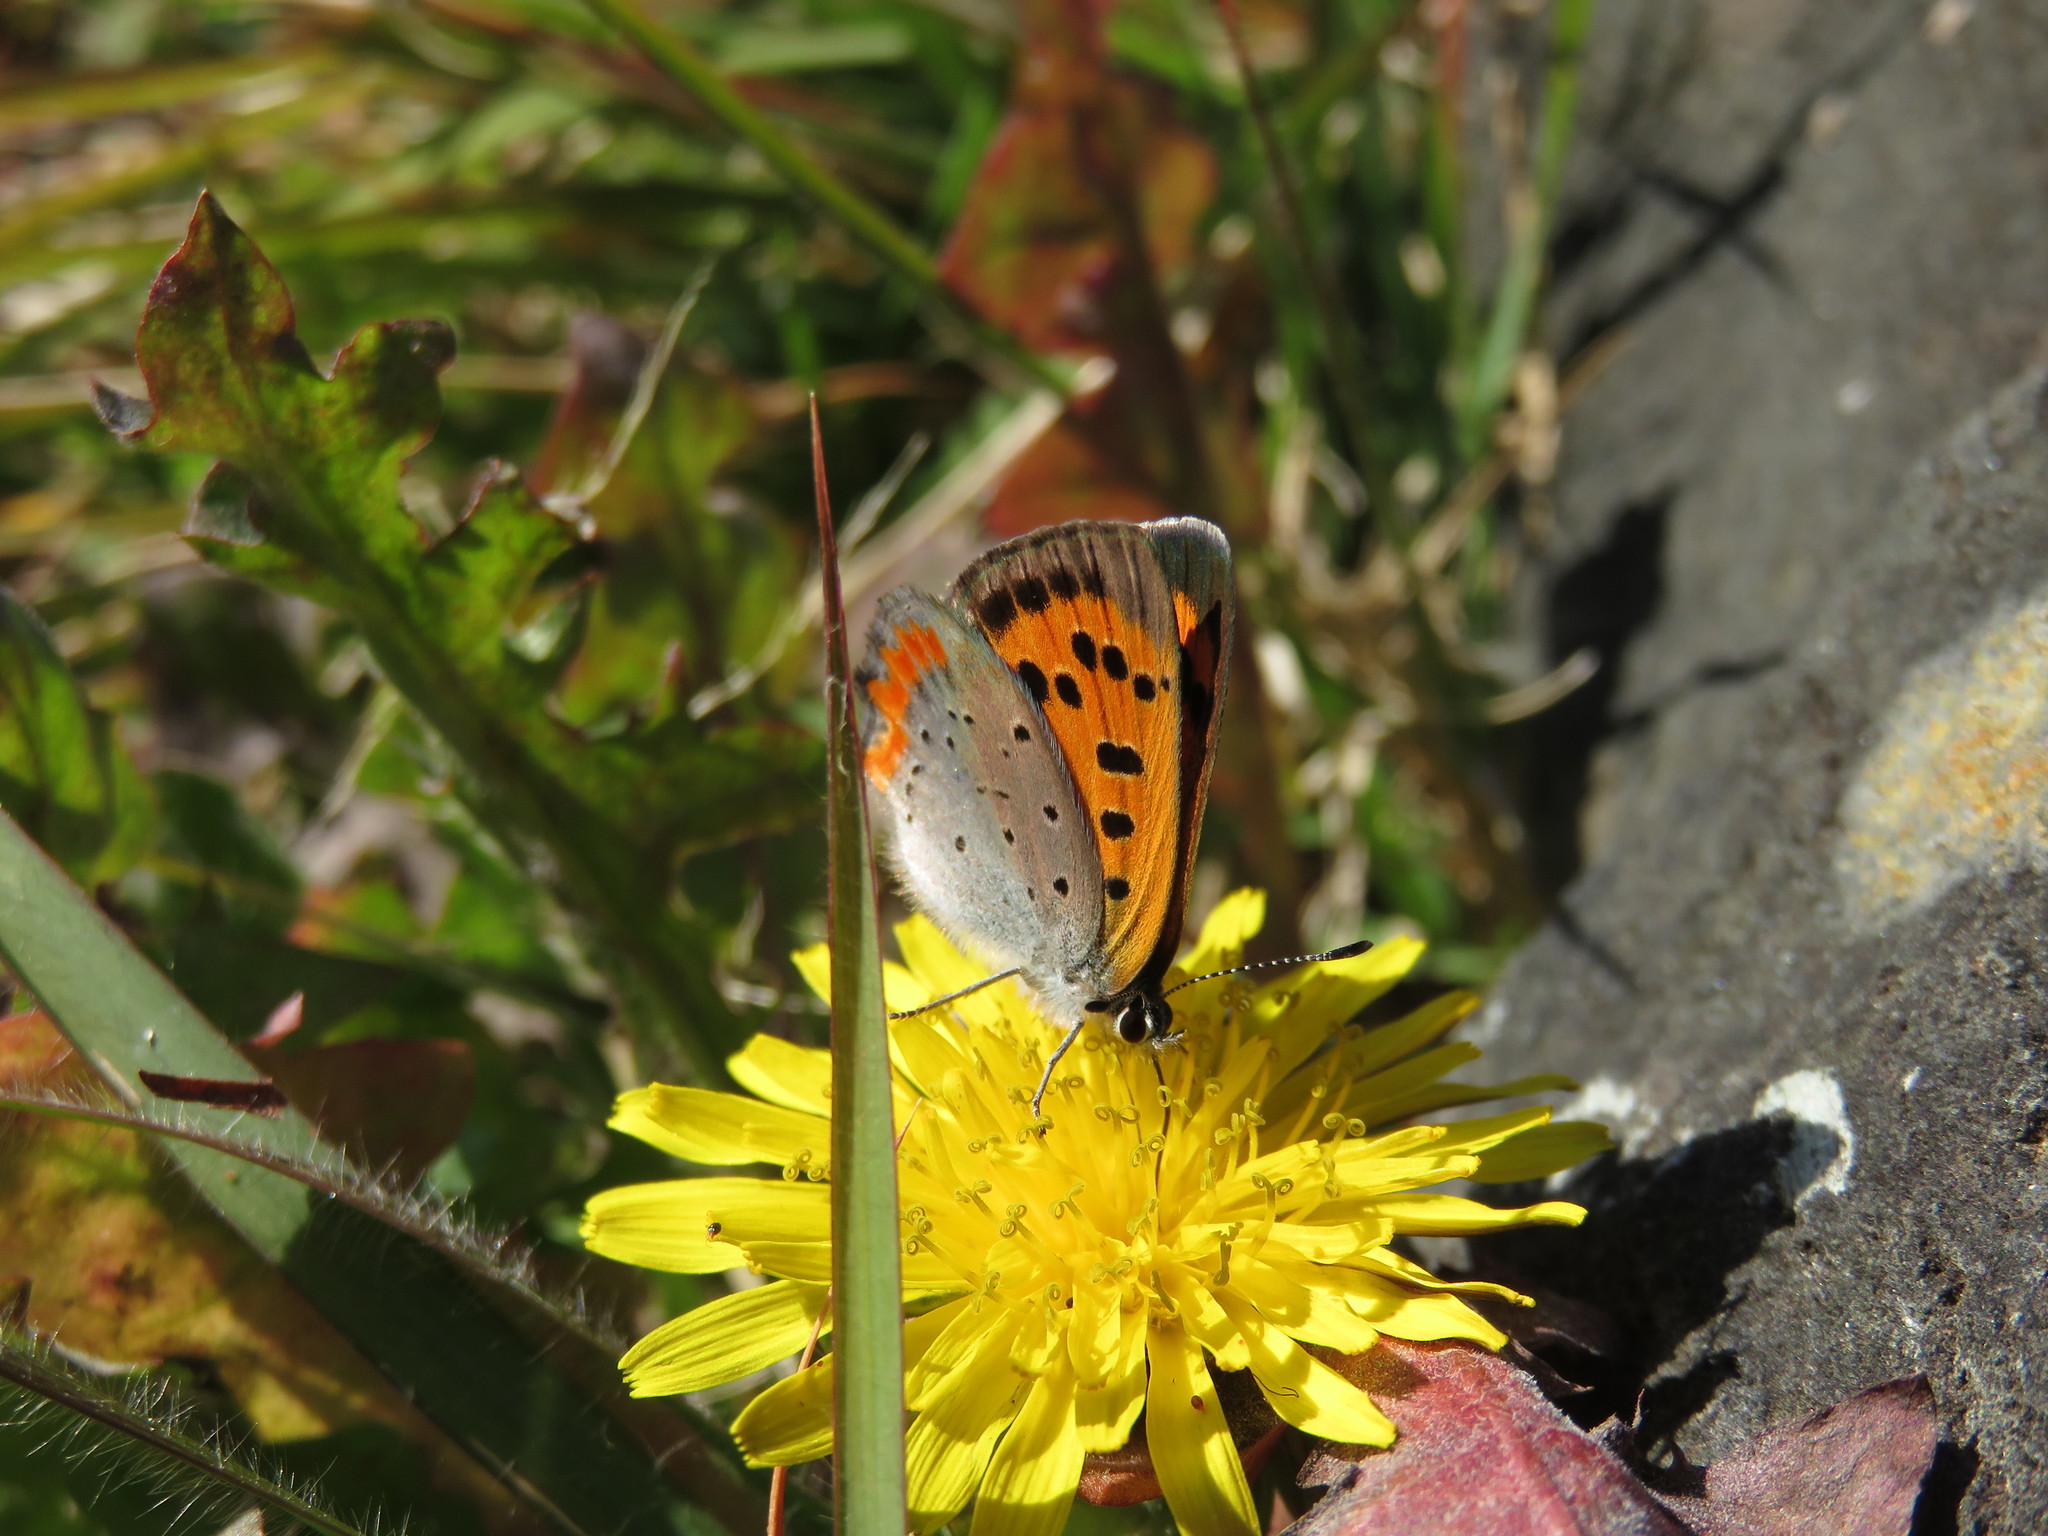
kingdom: Animalia
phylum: Arthropoda
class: Insecta
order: Lepidoptera
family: Lycaenidae
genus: Lycaena
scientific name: Lycaena phlaeas
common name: Small copper
